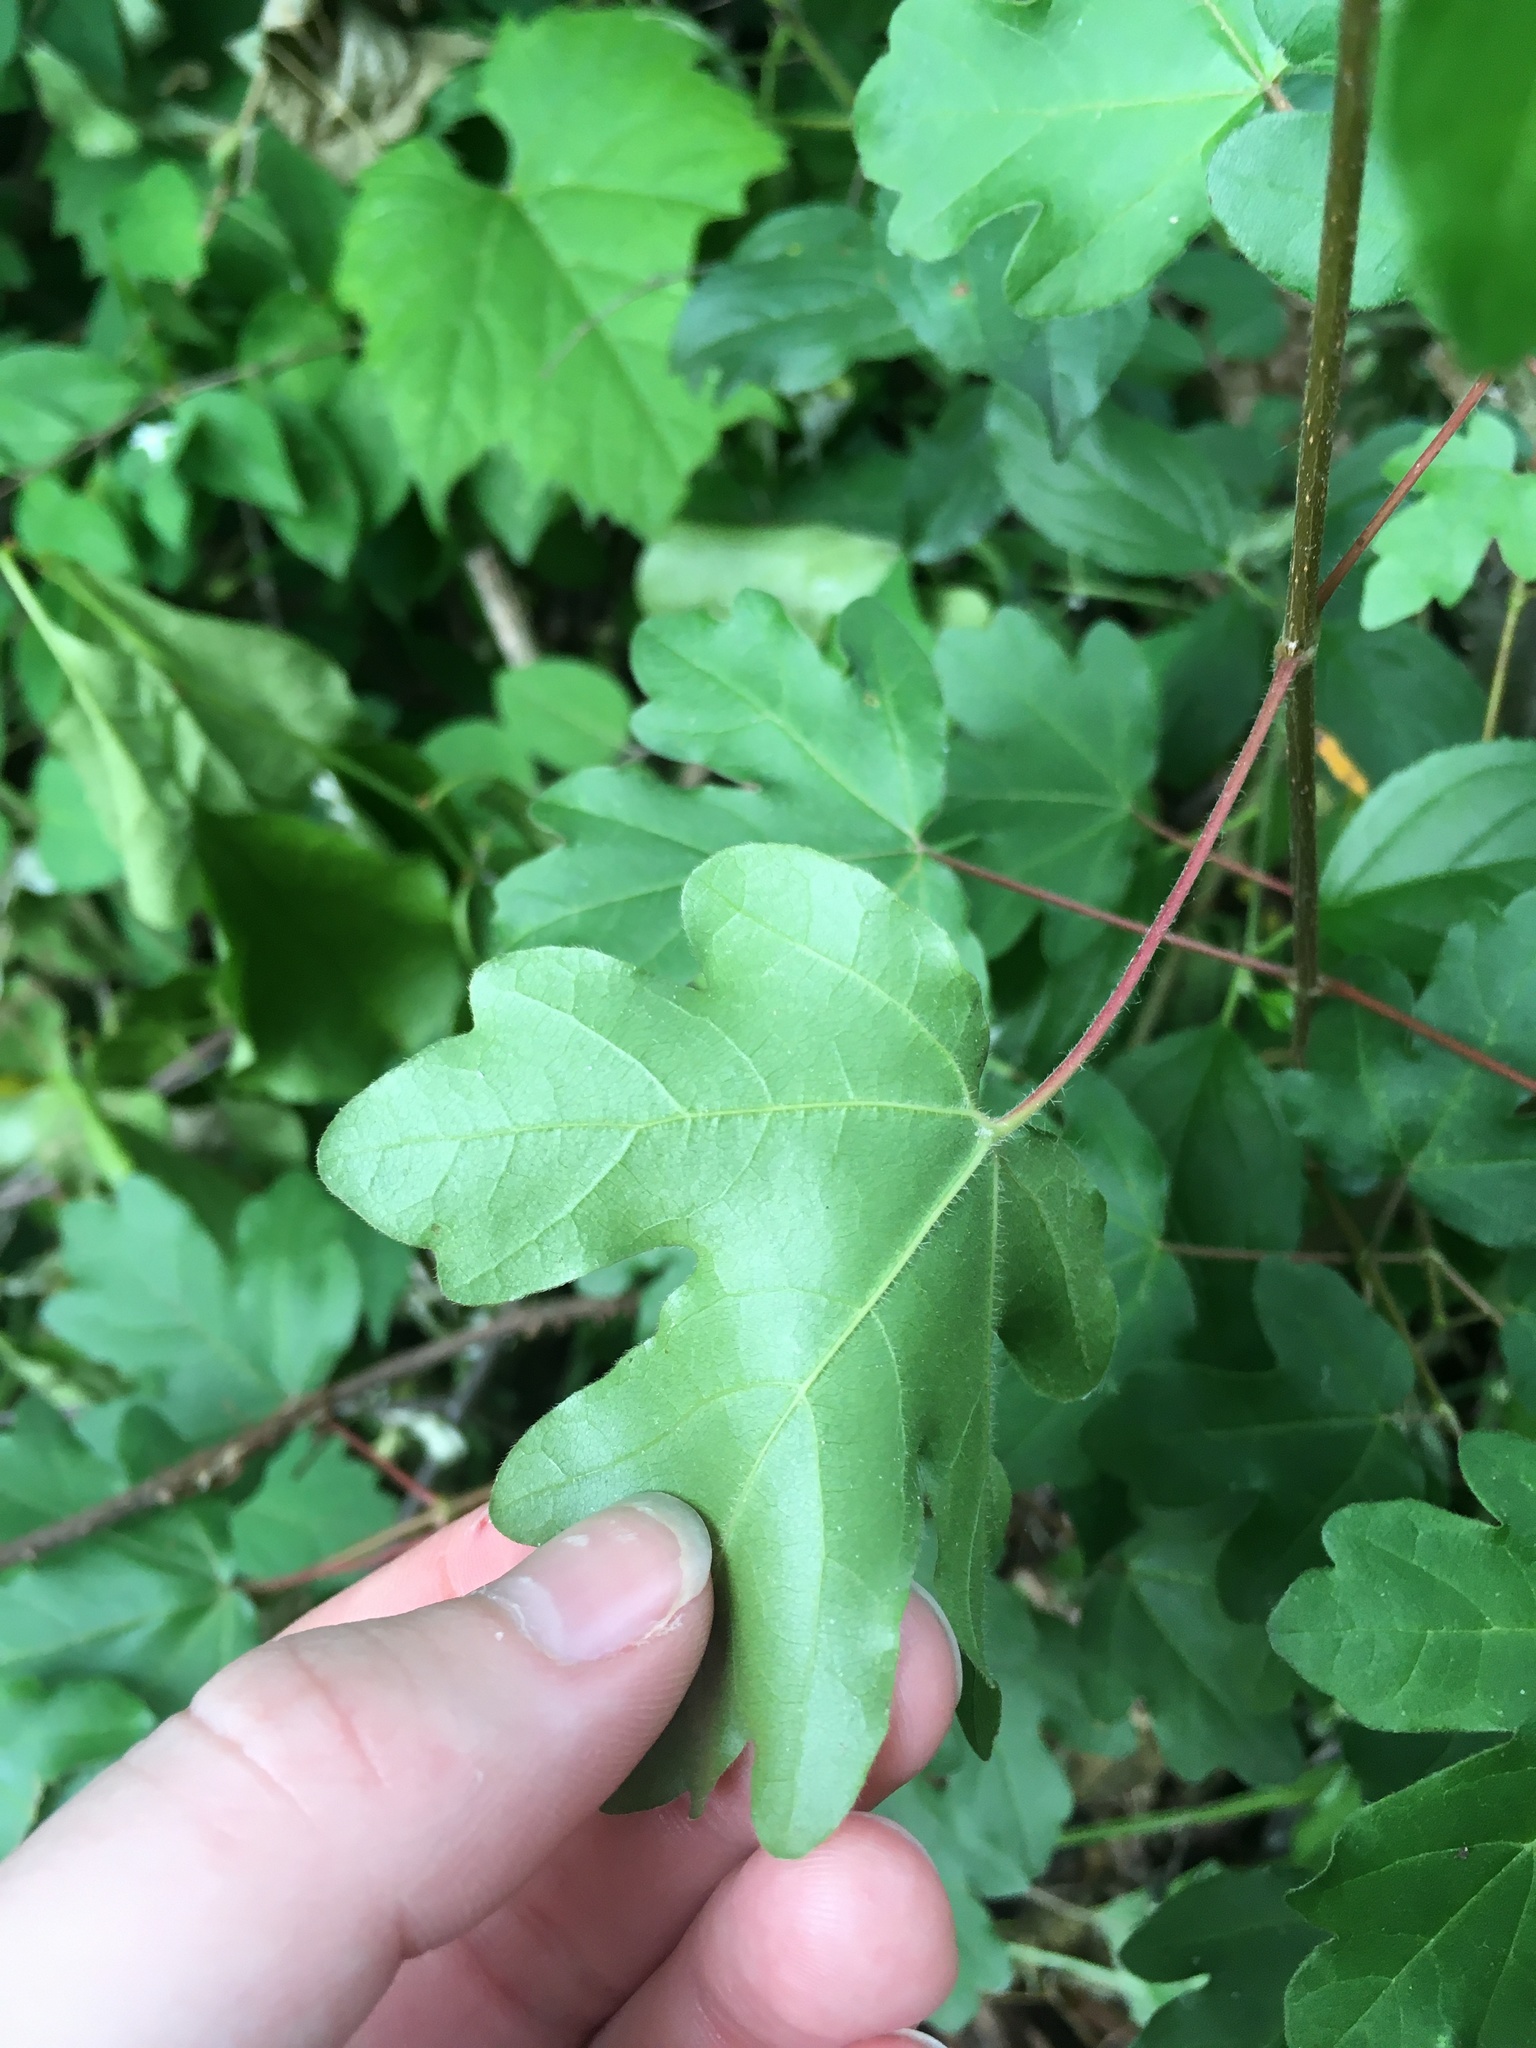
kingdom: Plantae
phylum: Tracheophyta
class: Magnoliopsida
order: Sapindales
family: Sapindaceae
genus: Acer
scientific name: Acer campestre
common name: Field maple
